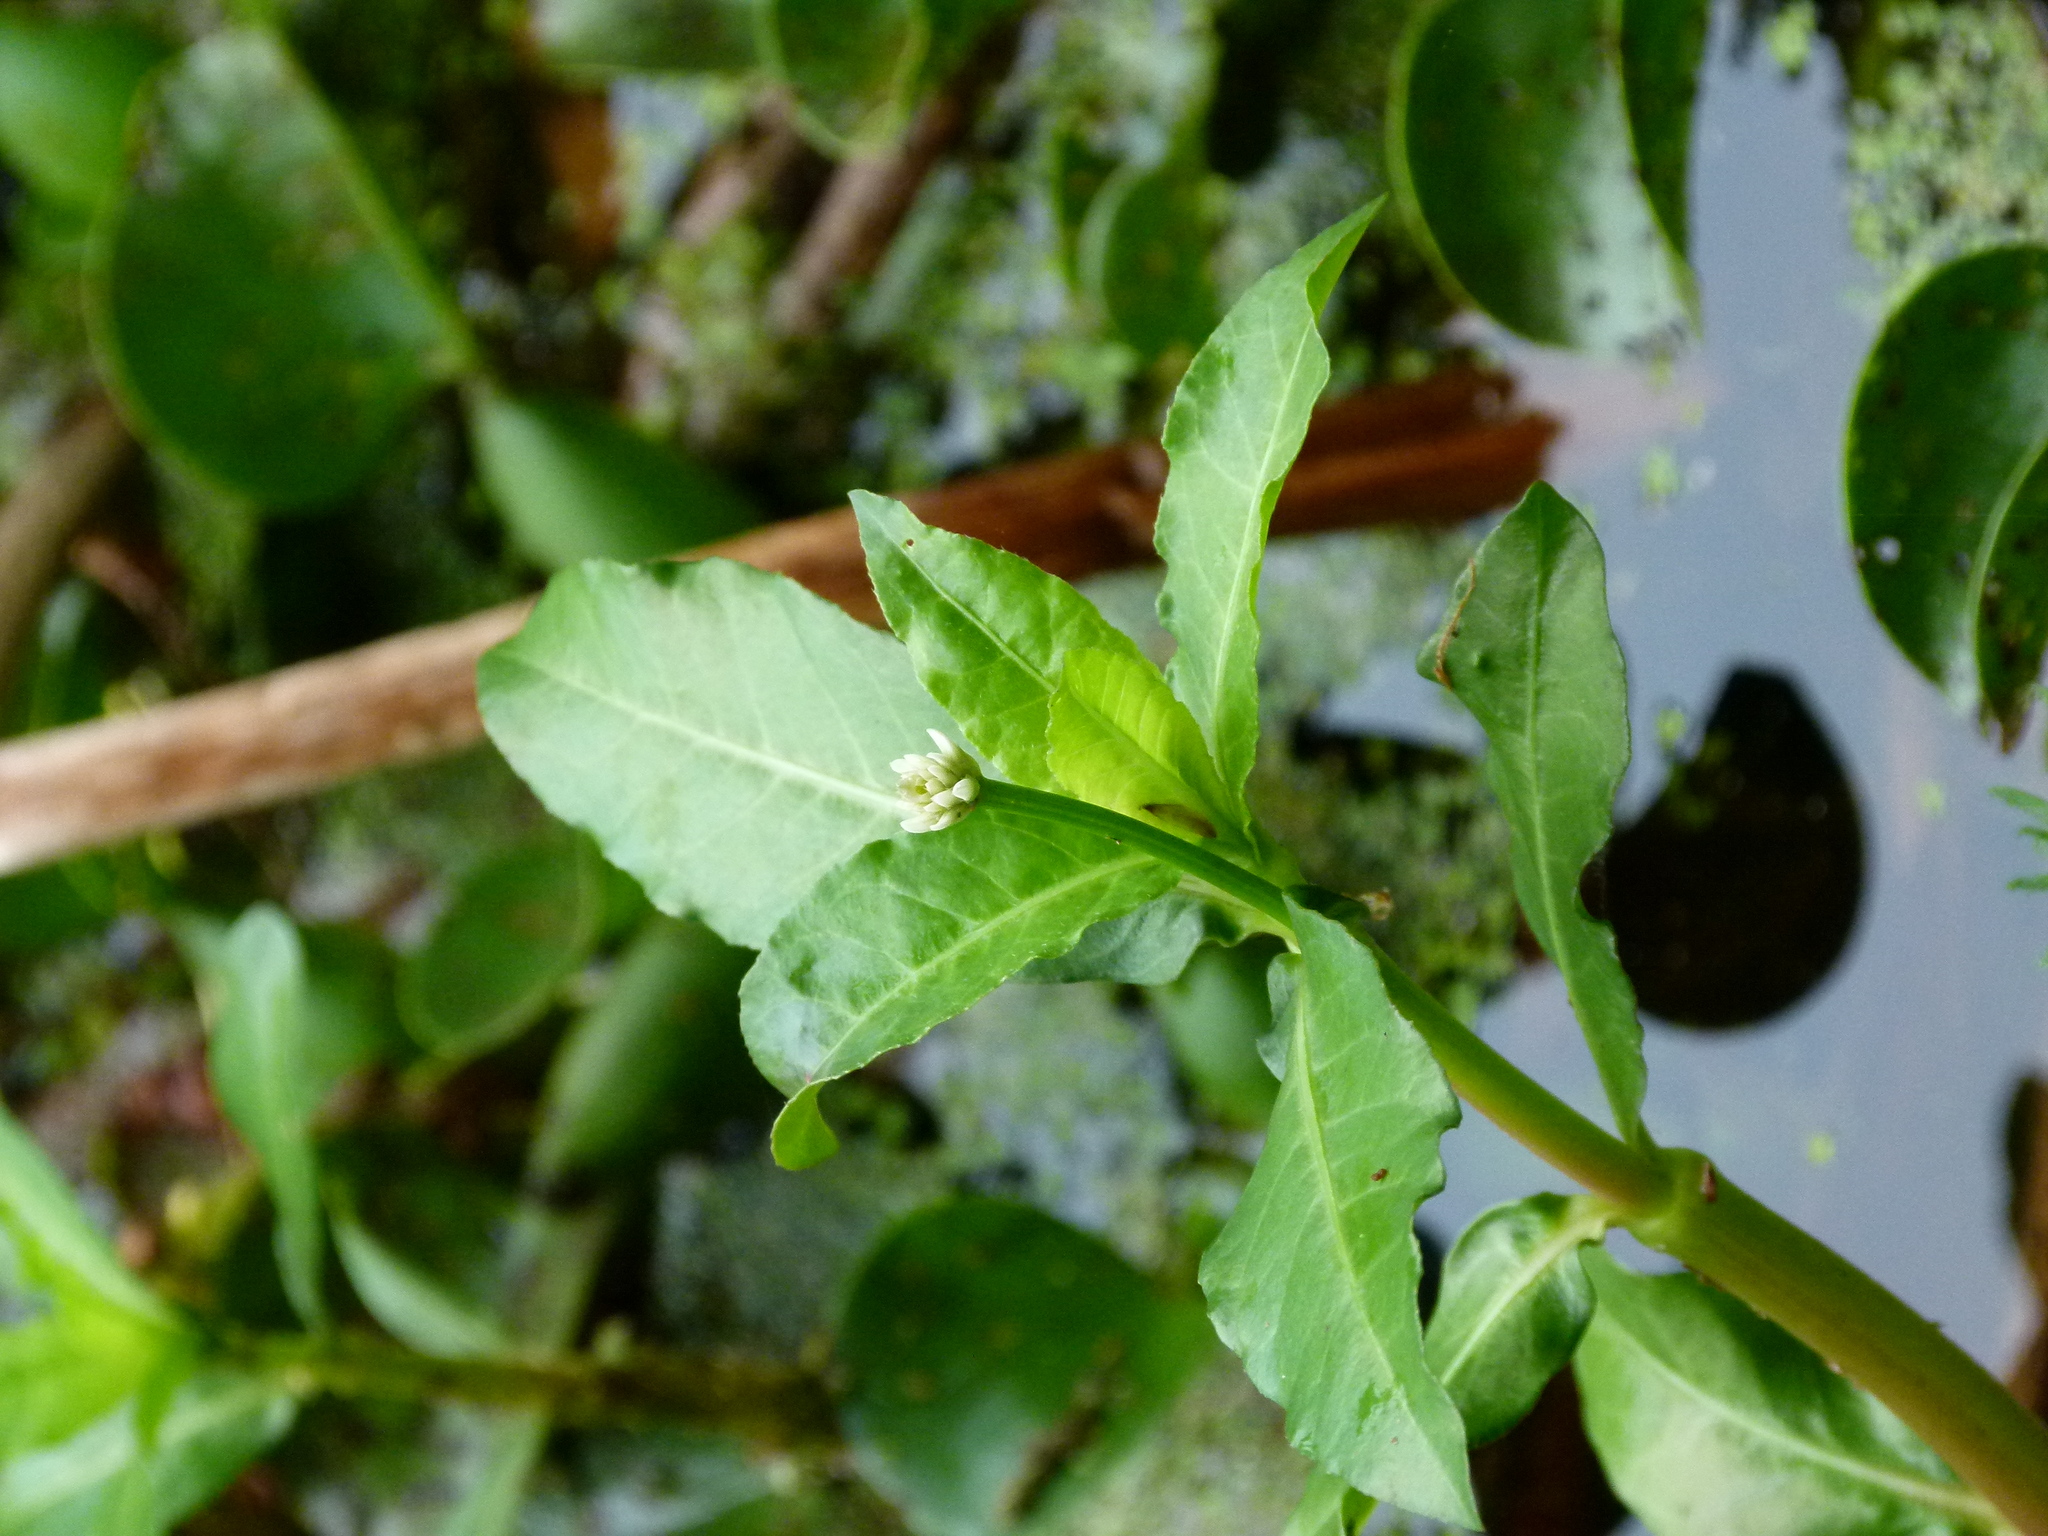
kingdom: Plantae
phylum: Tracheophyta
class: Magnoliopsida
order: Caryophyllales
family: Amaranthaceae
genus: Alternanthera
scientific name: Alternanthera philoxeroides
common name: Alligatorweed
